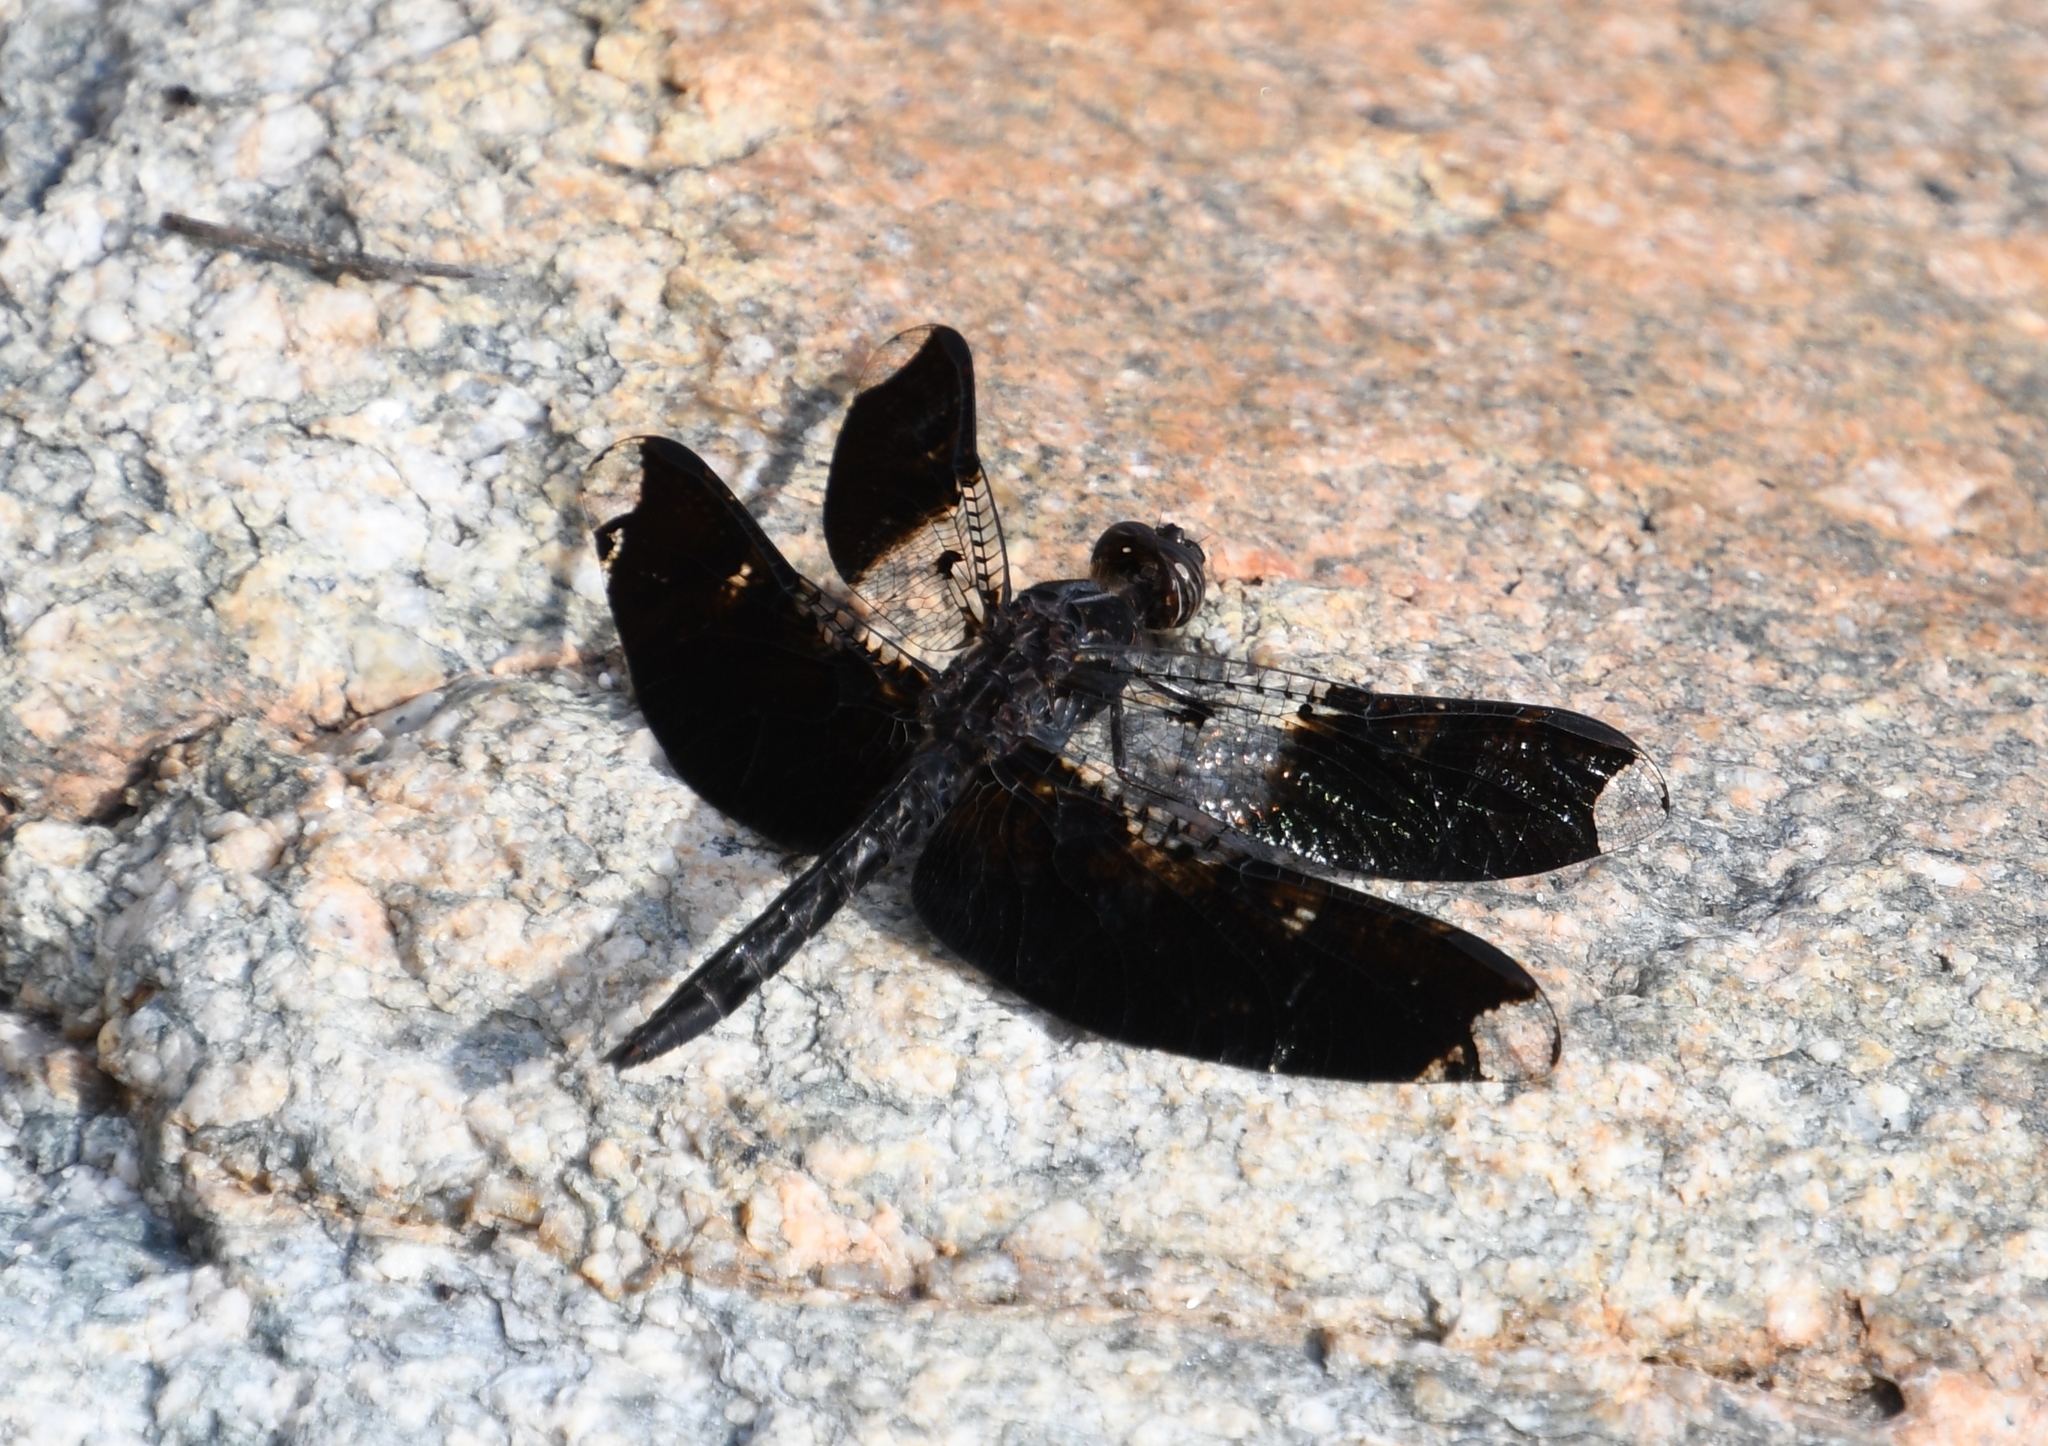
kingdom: Animalia
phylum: Arthropoda
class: Insecta
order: Odonata
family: Libellulidae
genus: Pseudoleon
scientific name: Pseudoleon superbus
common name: Filigree skimmer
